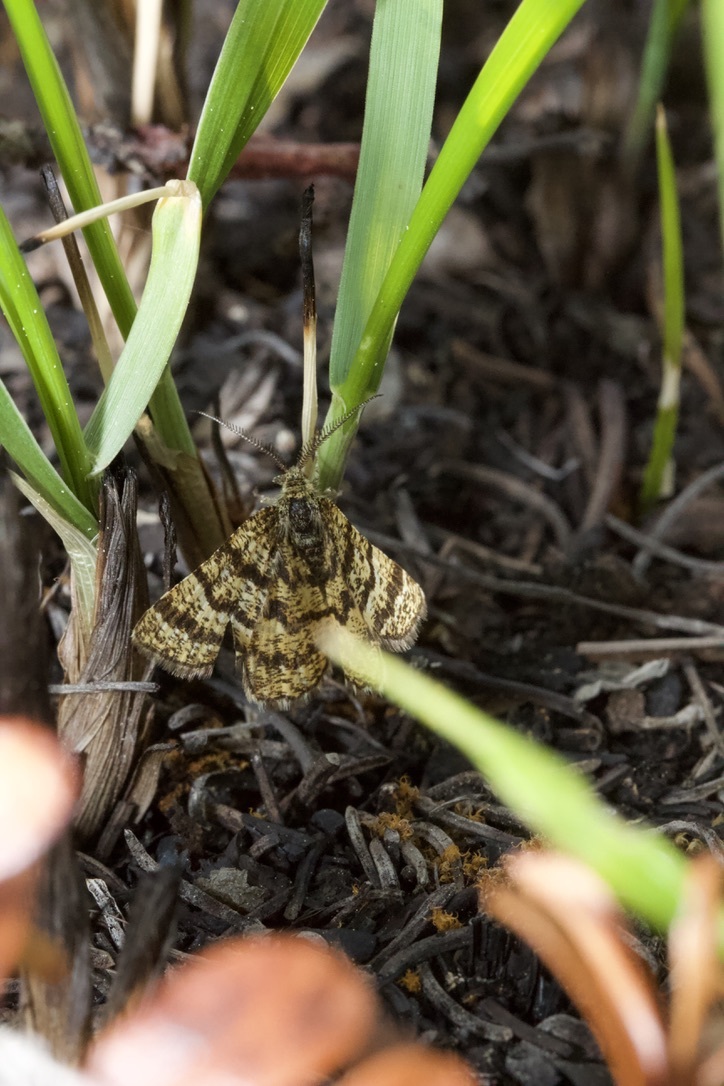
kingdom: Animalia
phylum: Arthropoda
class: Insecta
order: Lepidoptera
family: Geometridae
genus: Macaria
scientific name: Macaria truncataria
